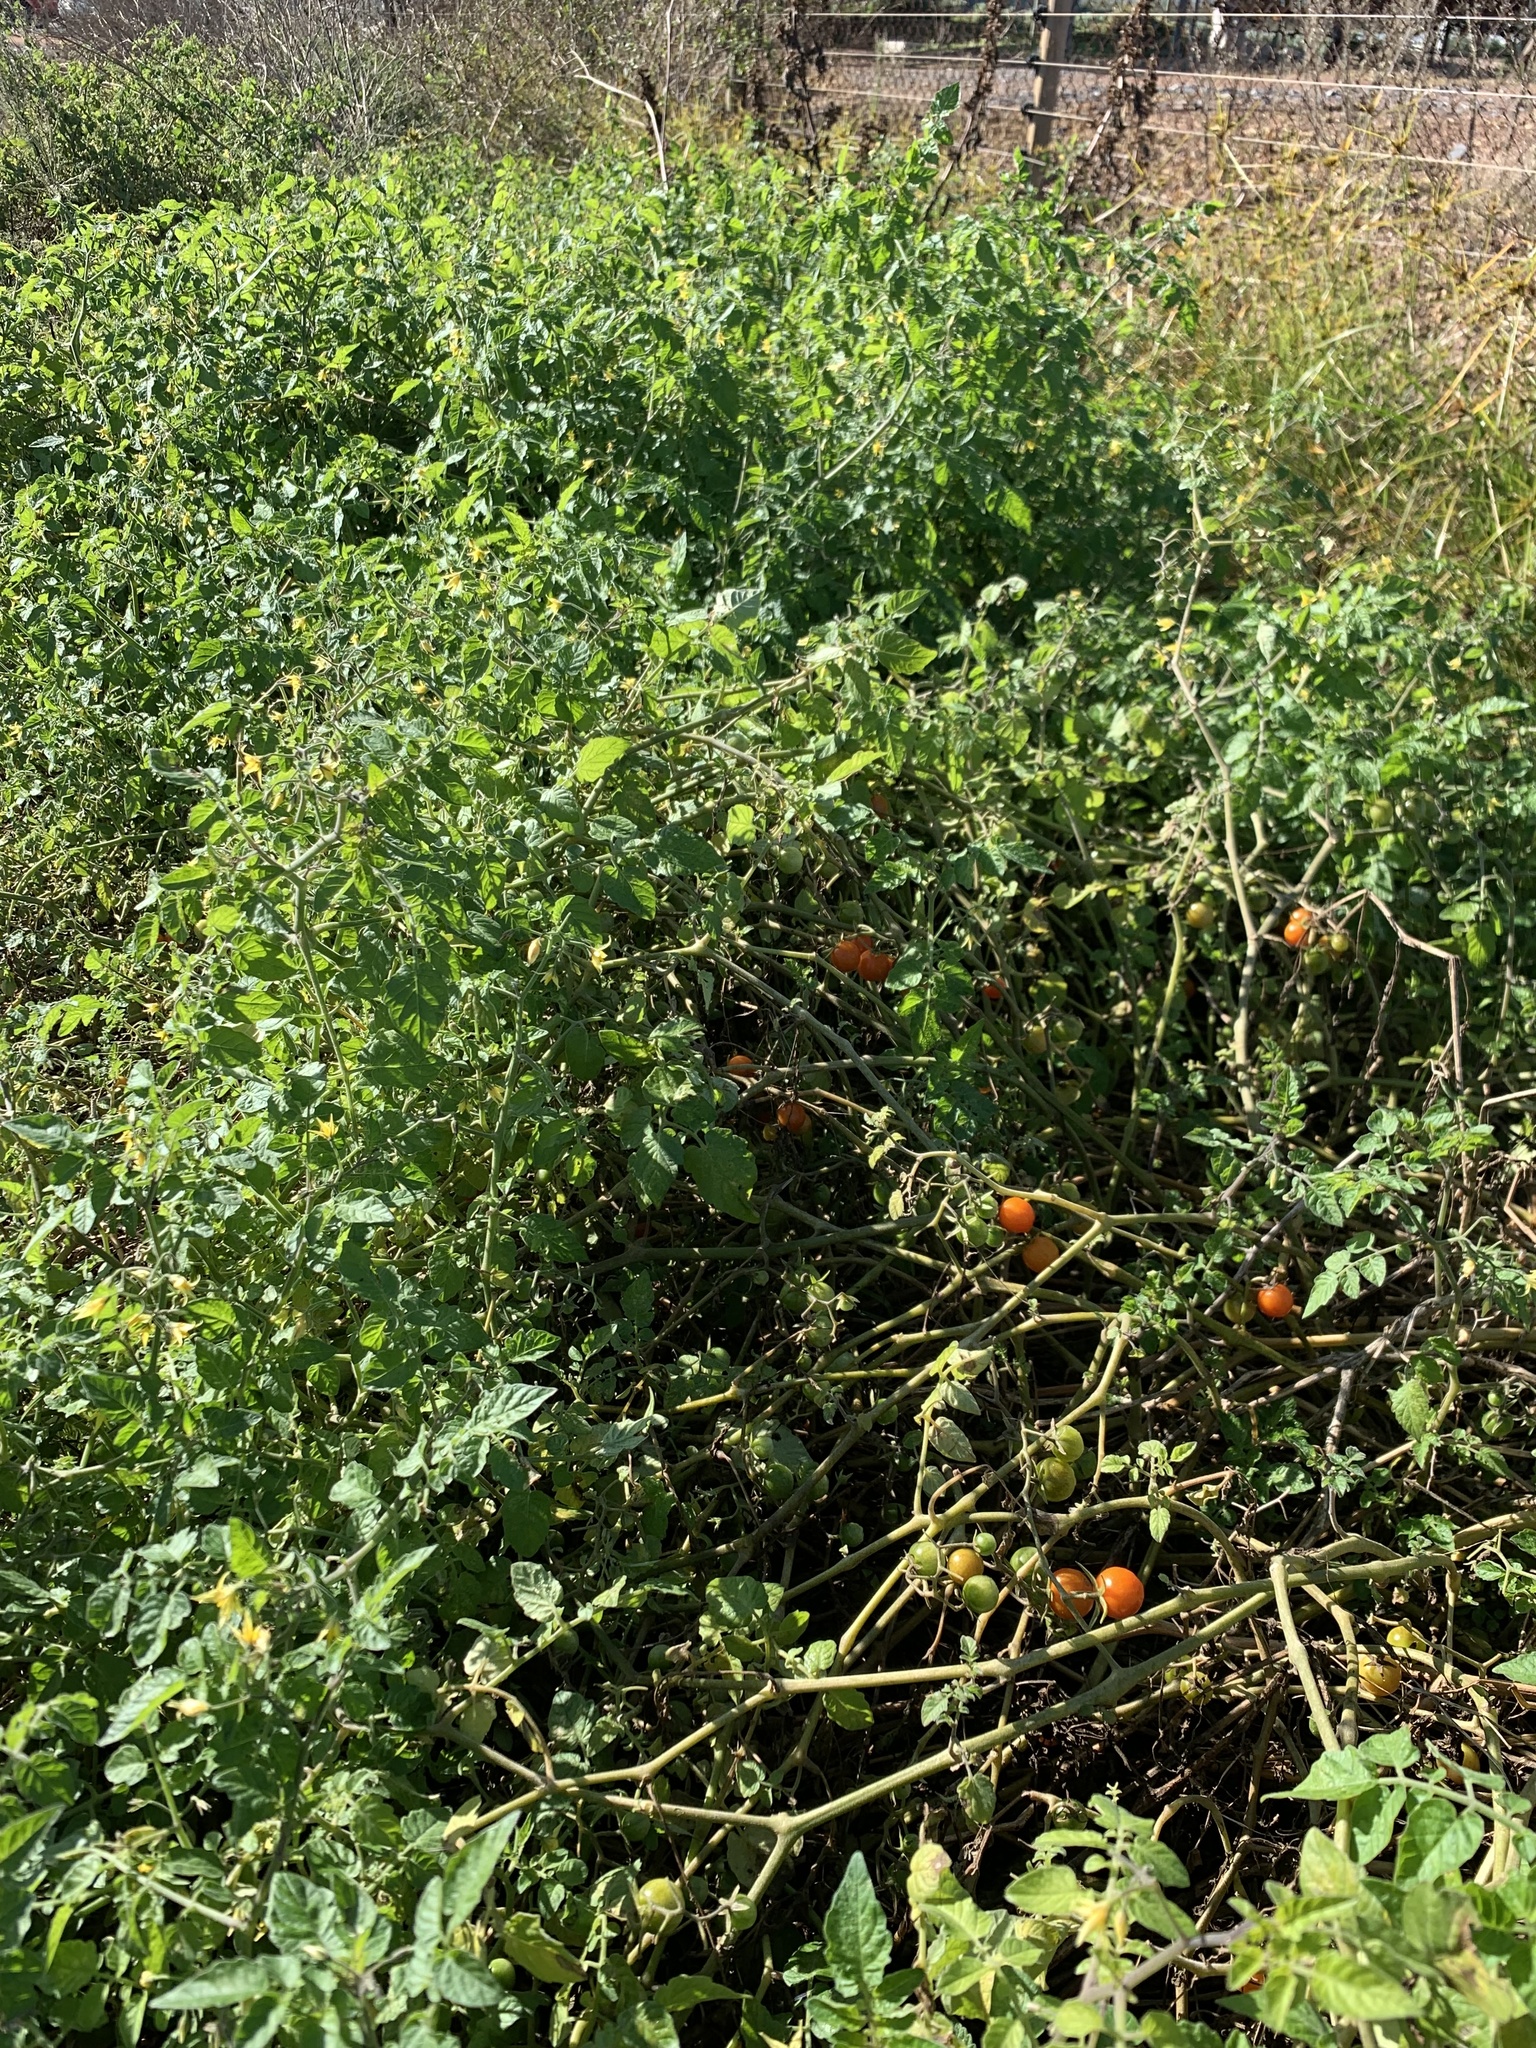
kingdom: Plantae
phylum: Tracheophyta
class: Magnoliopsida
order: Solanales
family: Solanaceae
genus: Solanum
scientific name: Solanum lycopersicum
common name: Garden tomato
